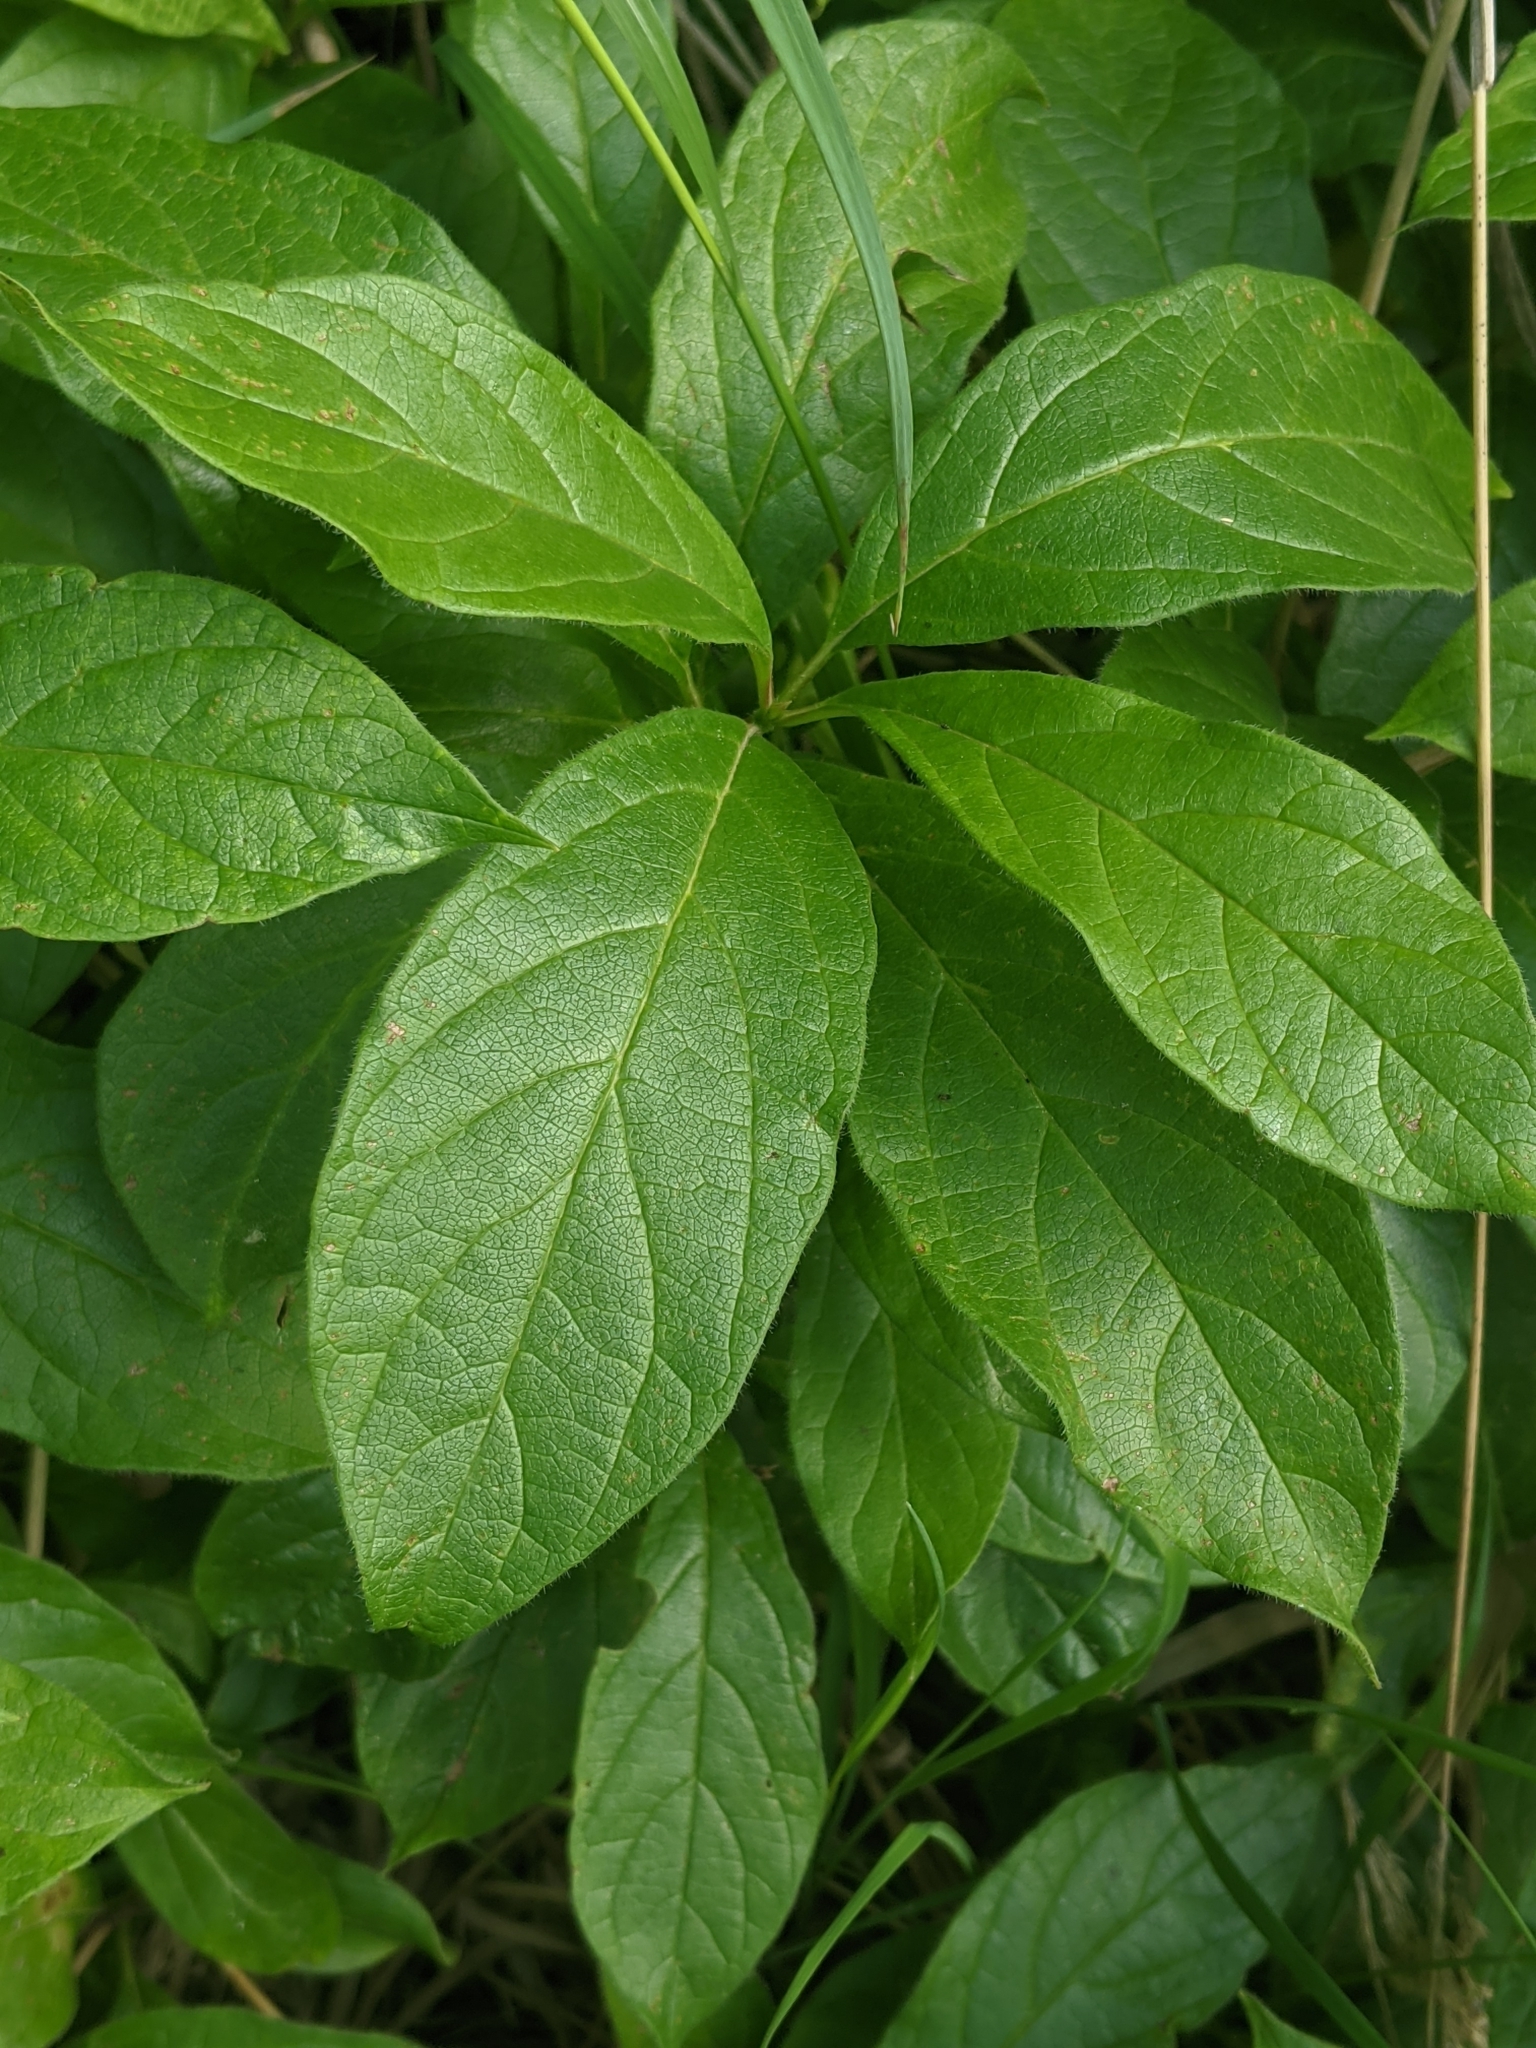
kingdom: Plantae
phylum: Tracheophyta
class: Magnoliopsida
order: Dipsacales
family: Caprifoliaceae
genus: Lonicera
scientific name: Lonicera involucrata
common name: Californian honeysuckle
